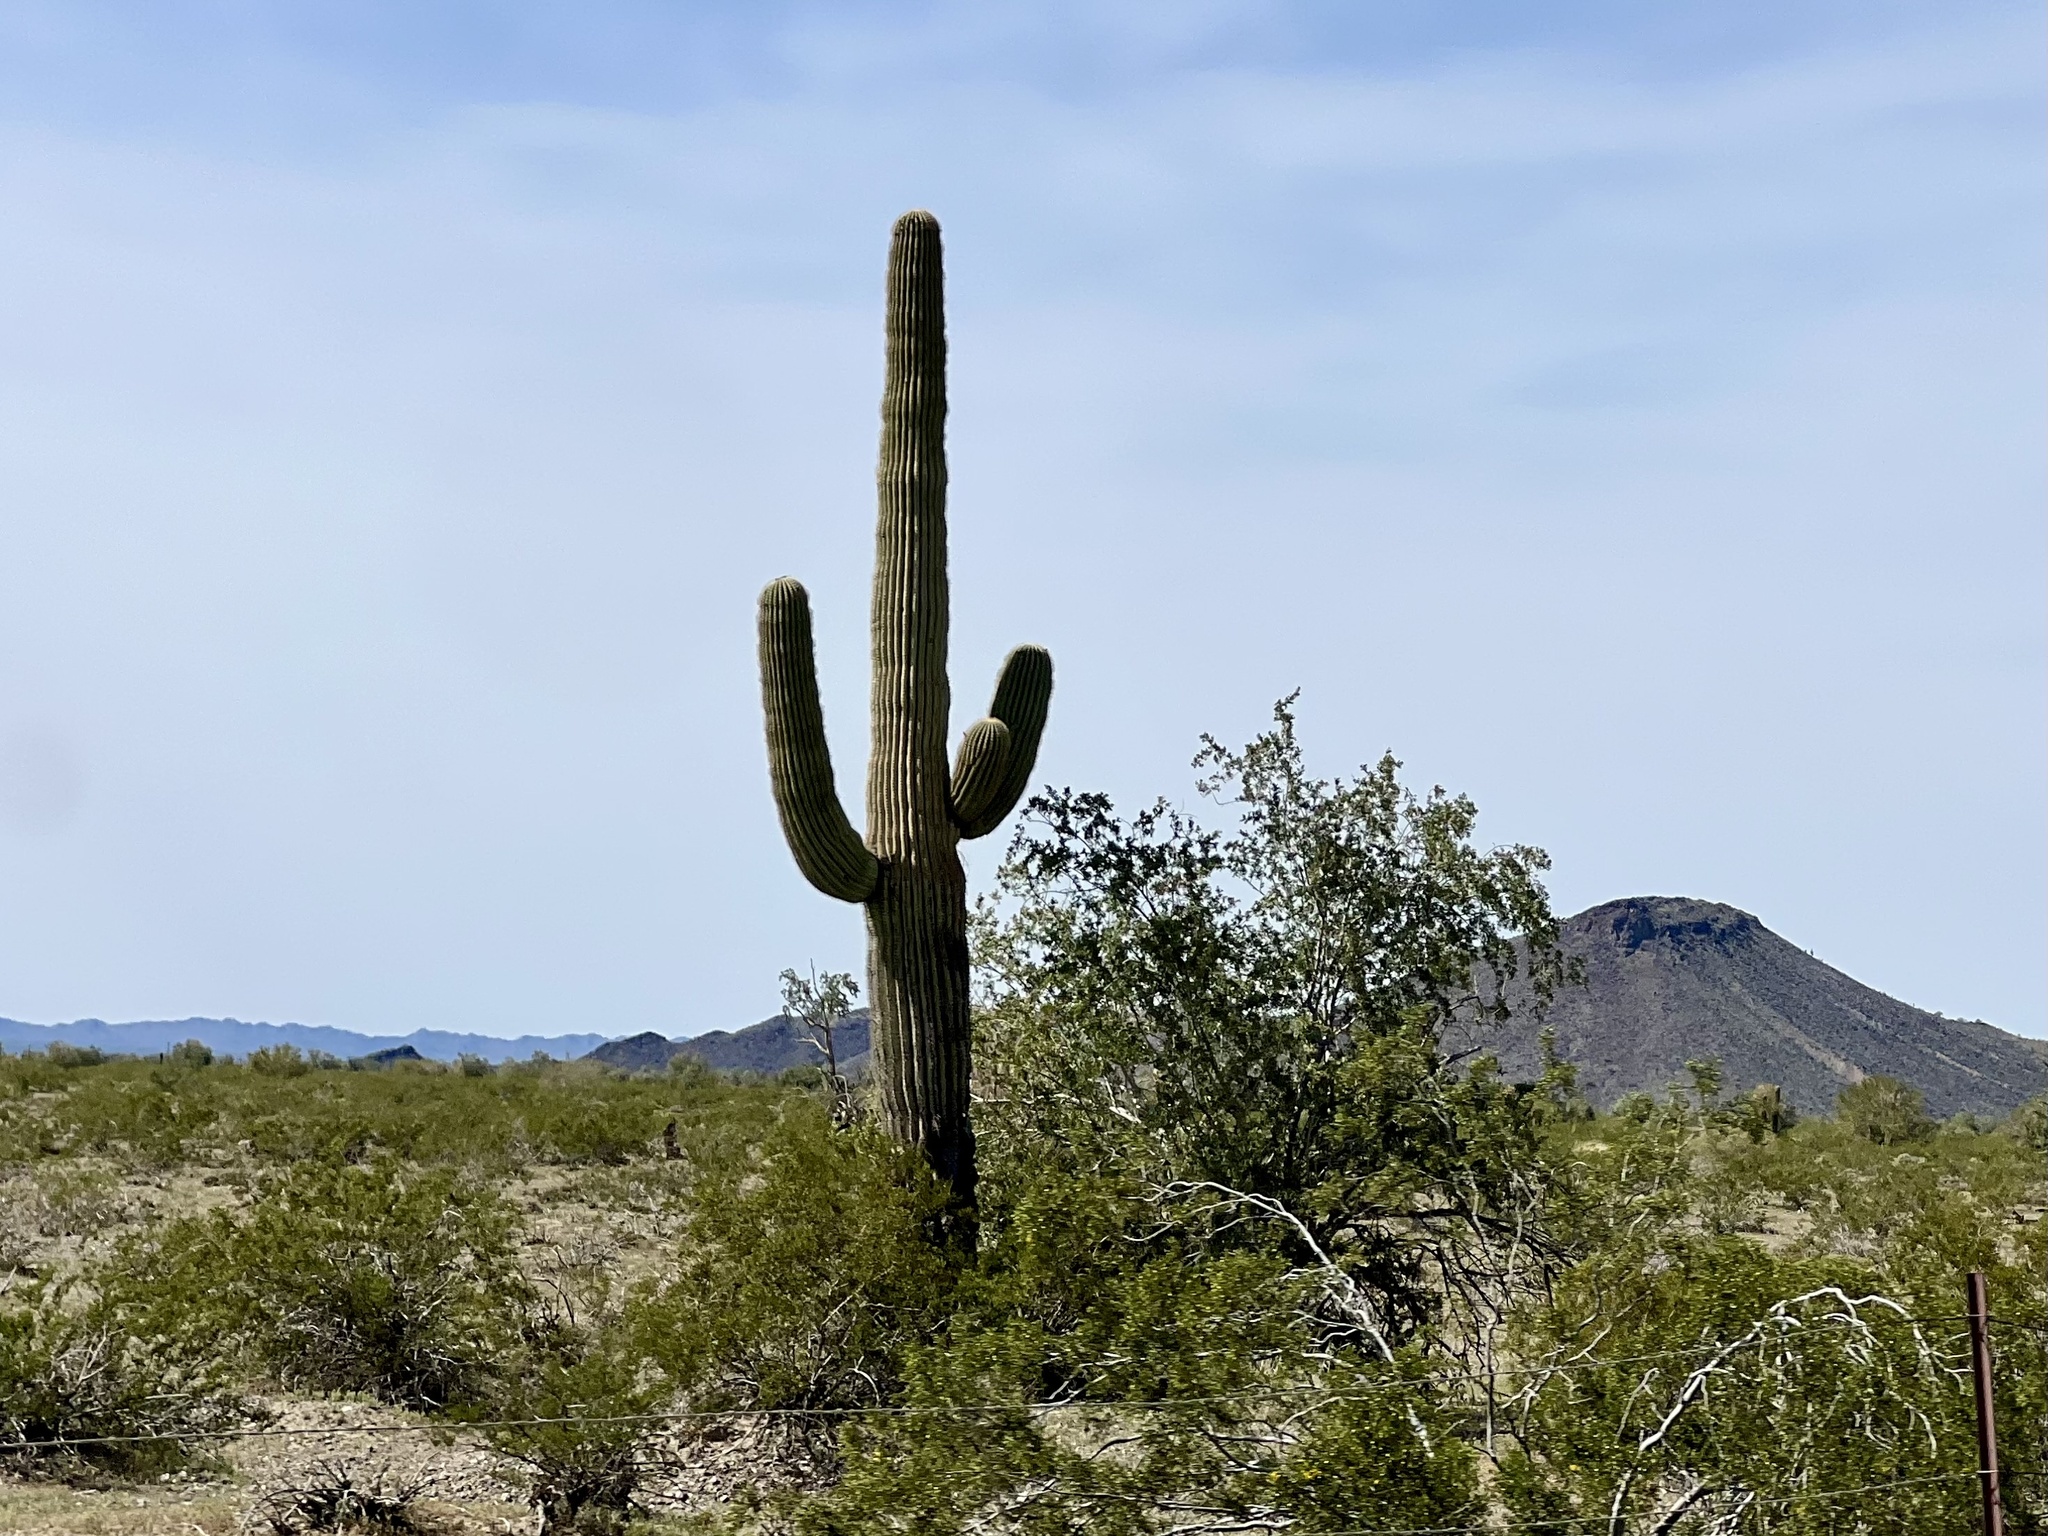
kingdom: Plantae
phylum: Tracheophyta
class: Magnoliopsida
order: Caryophyllales
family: Cactaceae
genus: Carnegiea
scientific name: Carnegiea gigantea
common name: Saguaro
